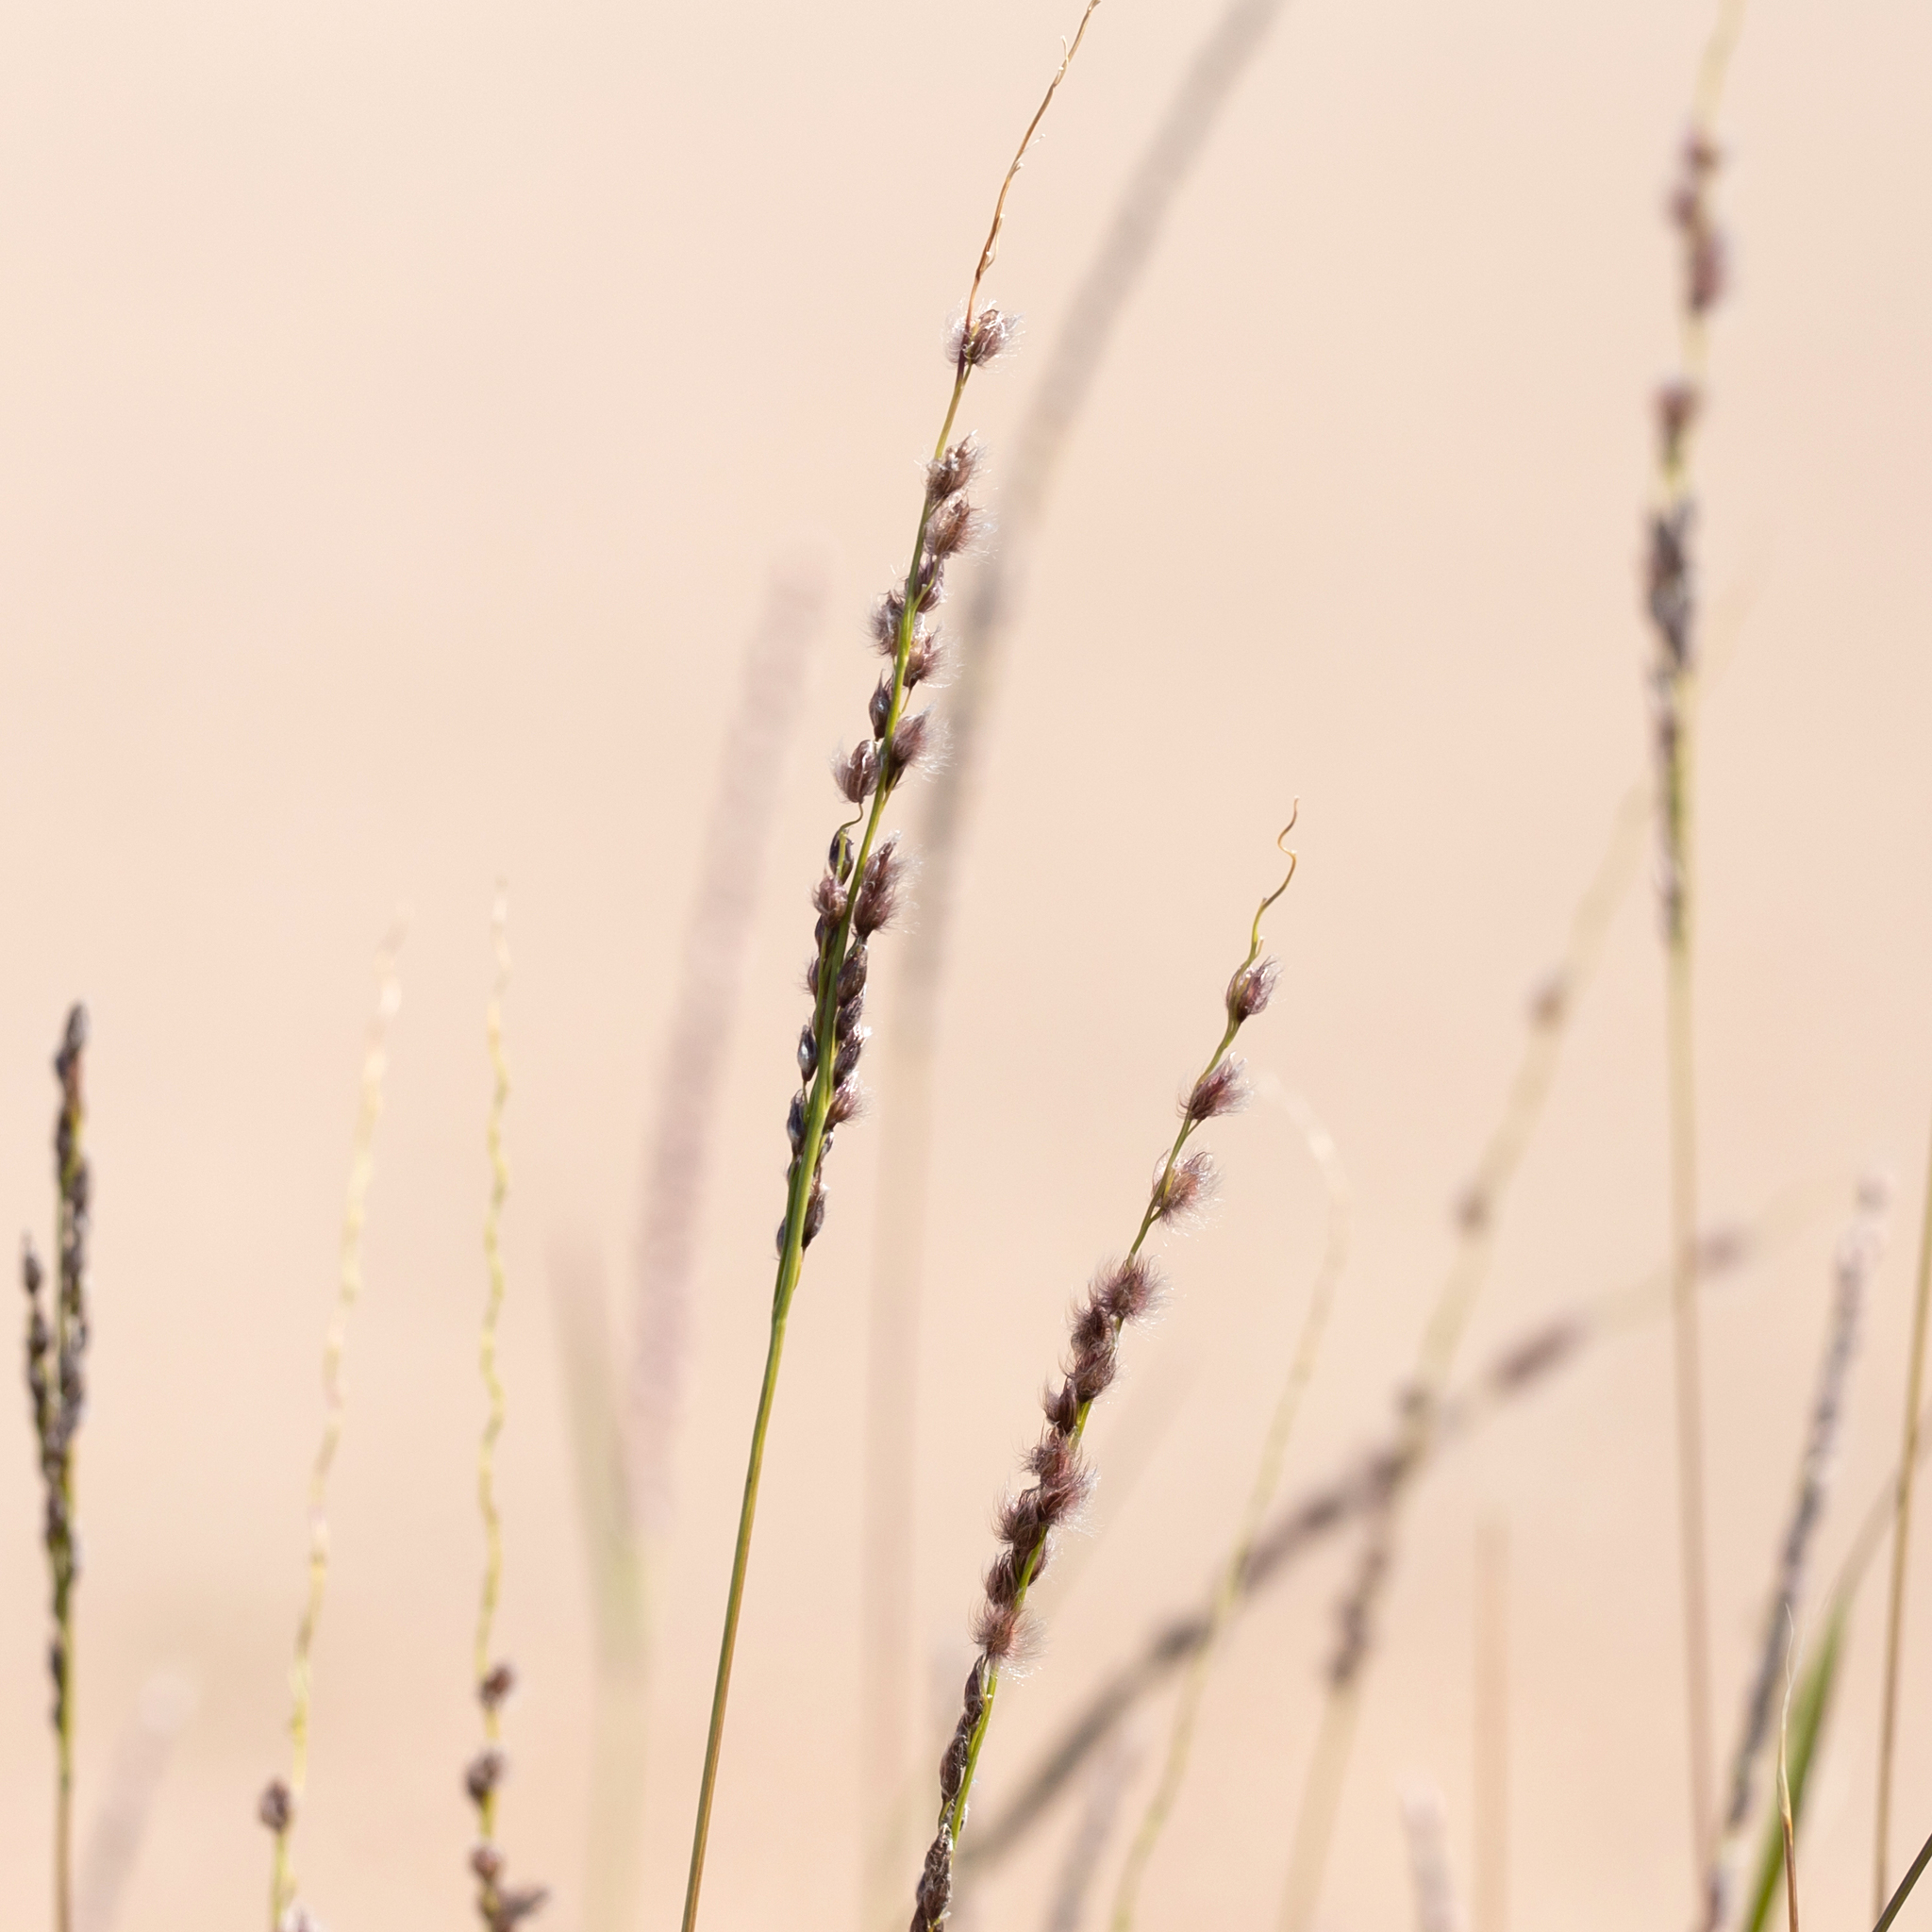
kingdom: Plantae
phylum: Tracheophyta
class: Liliopsida
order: Poales
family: Poaceae
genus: Digitaria
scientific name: Digitaria brownii
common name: Cotton grass
